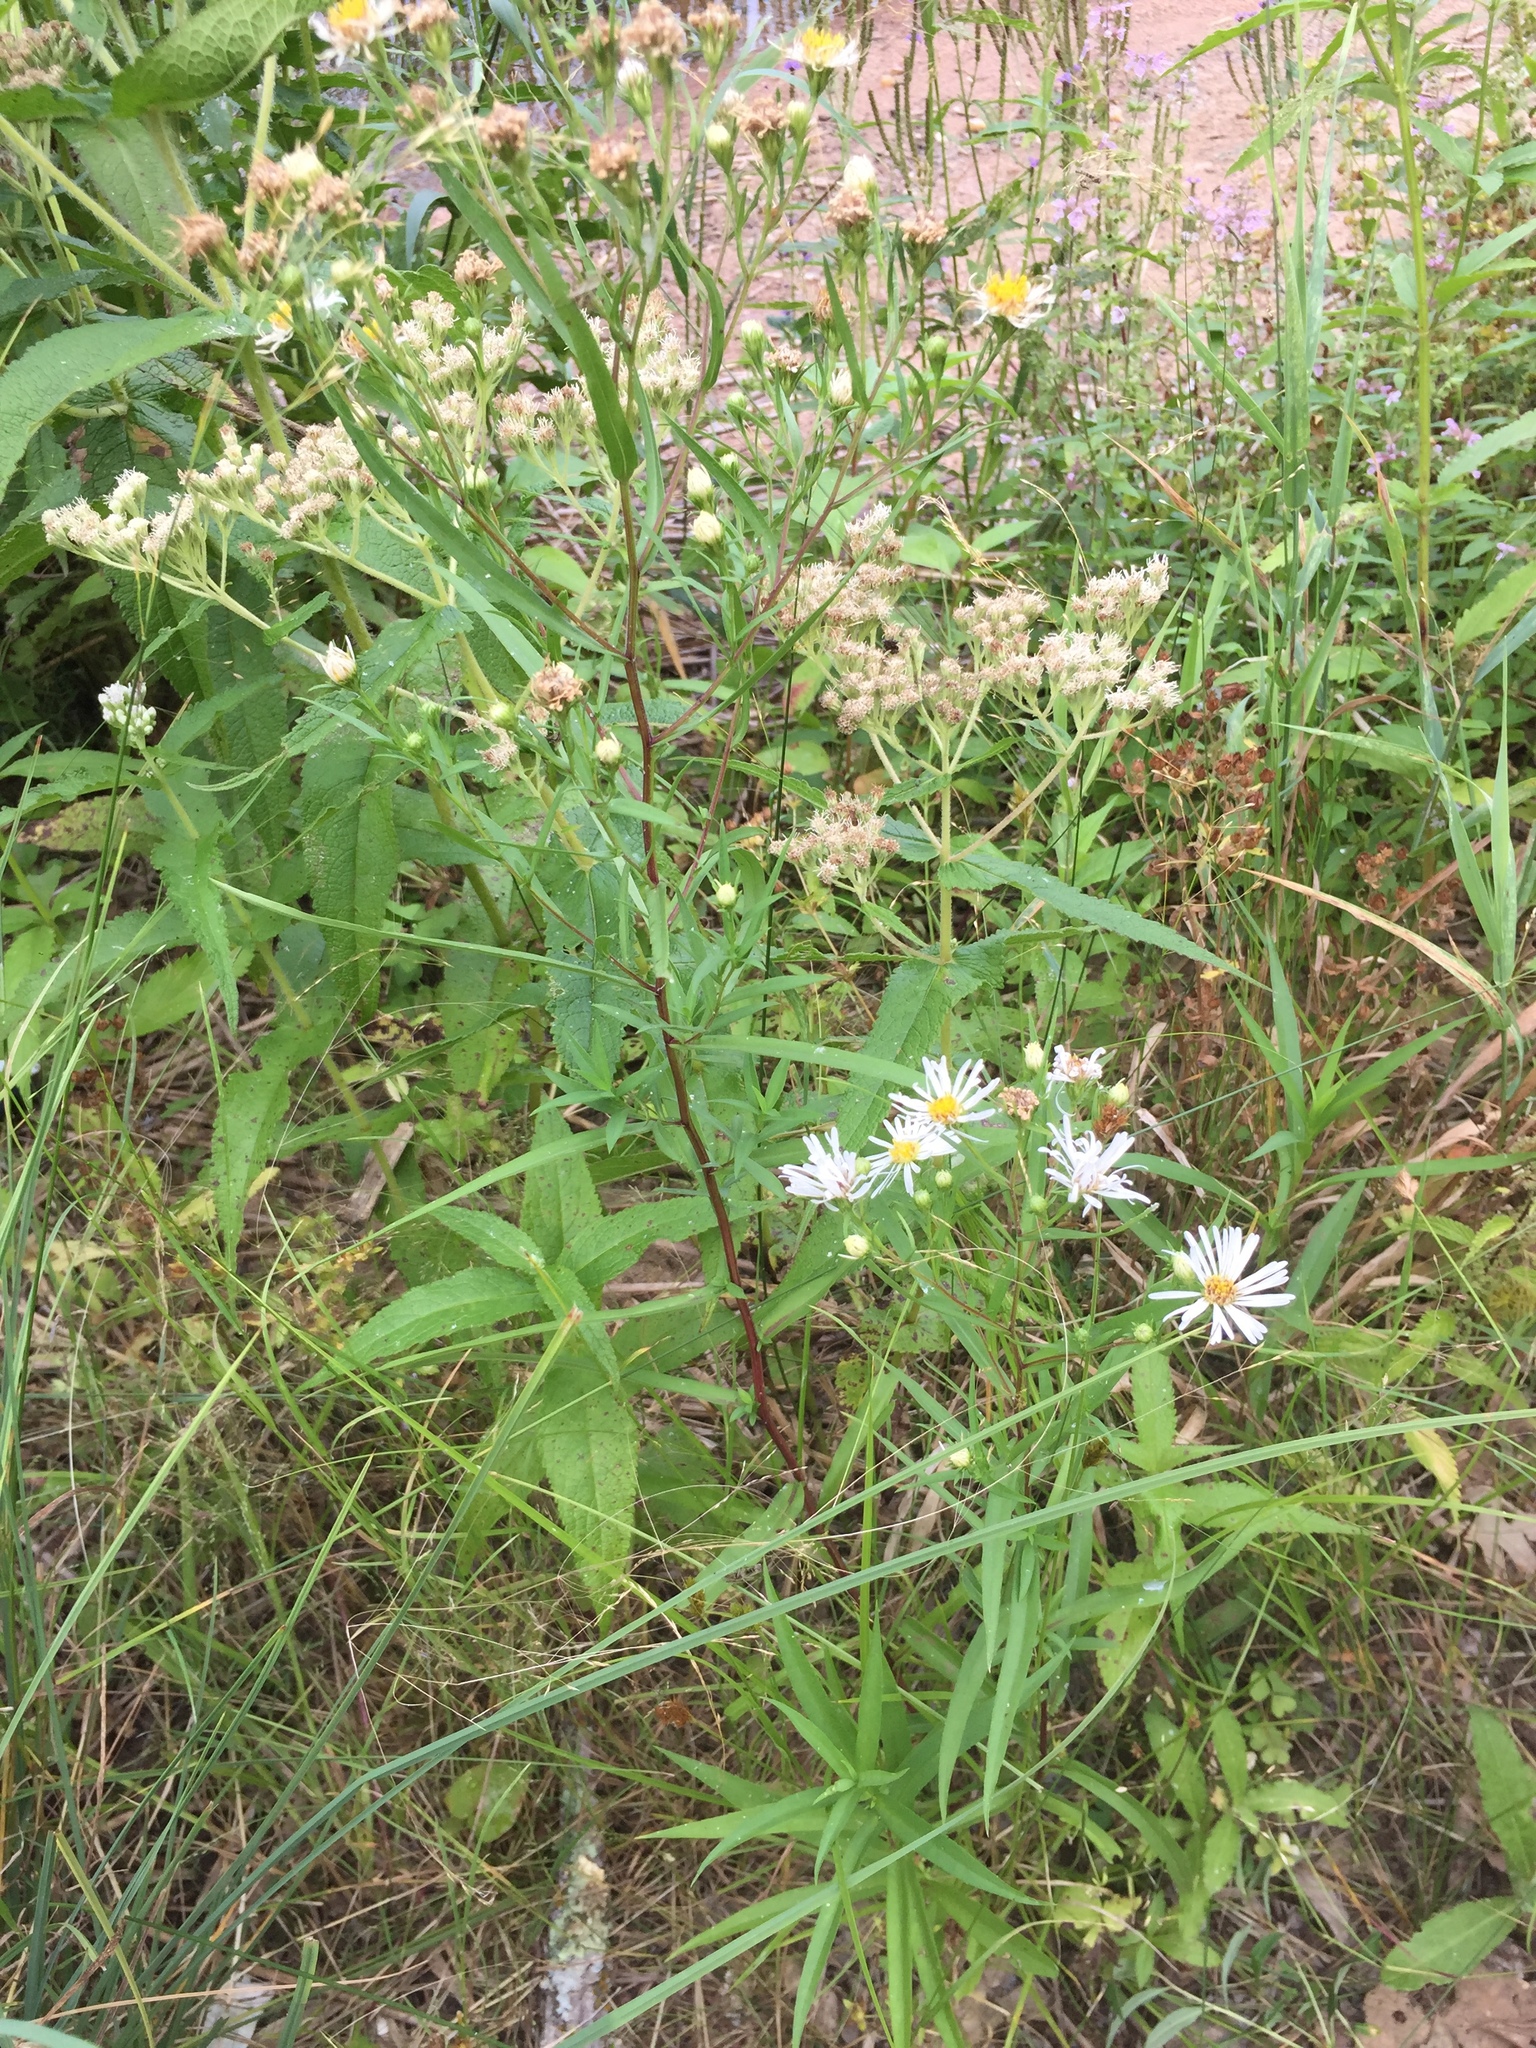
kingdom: Plantae
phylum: Tracheophyta
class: Magnoliopsida
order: Asterales
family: Asteraceae
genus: Symphyotrichum
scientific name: Symphyotrichum lanceolatum
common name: Panicled aster
